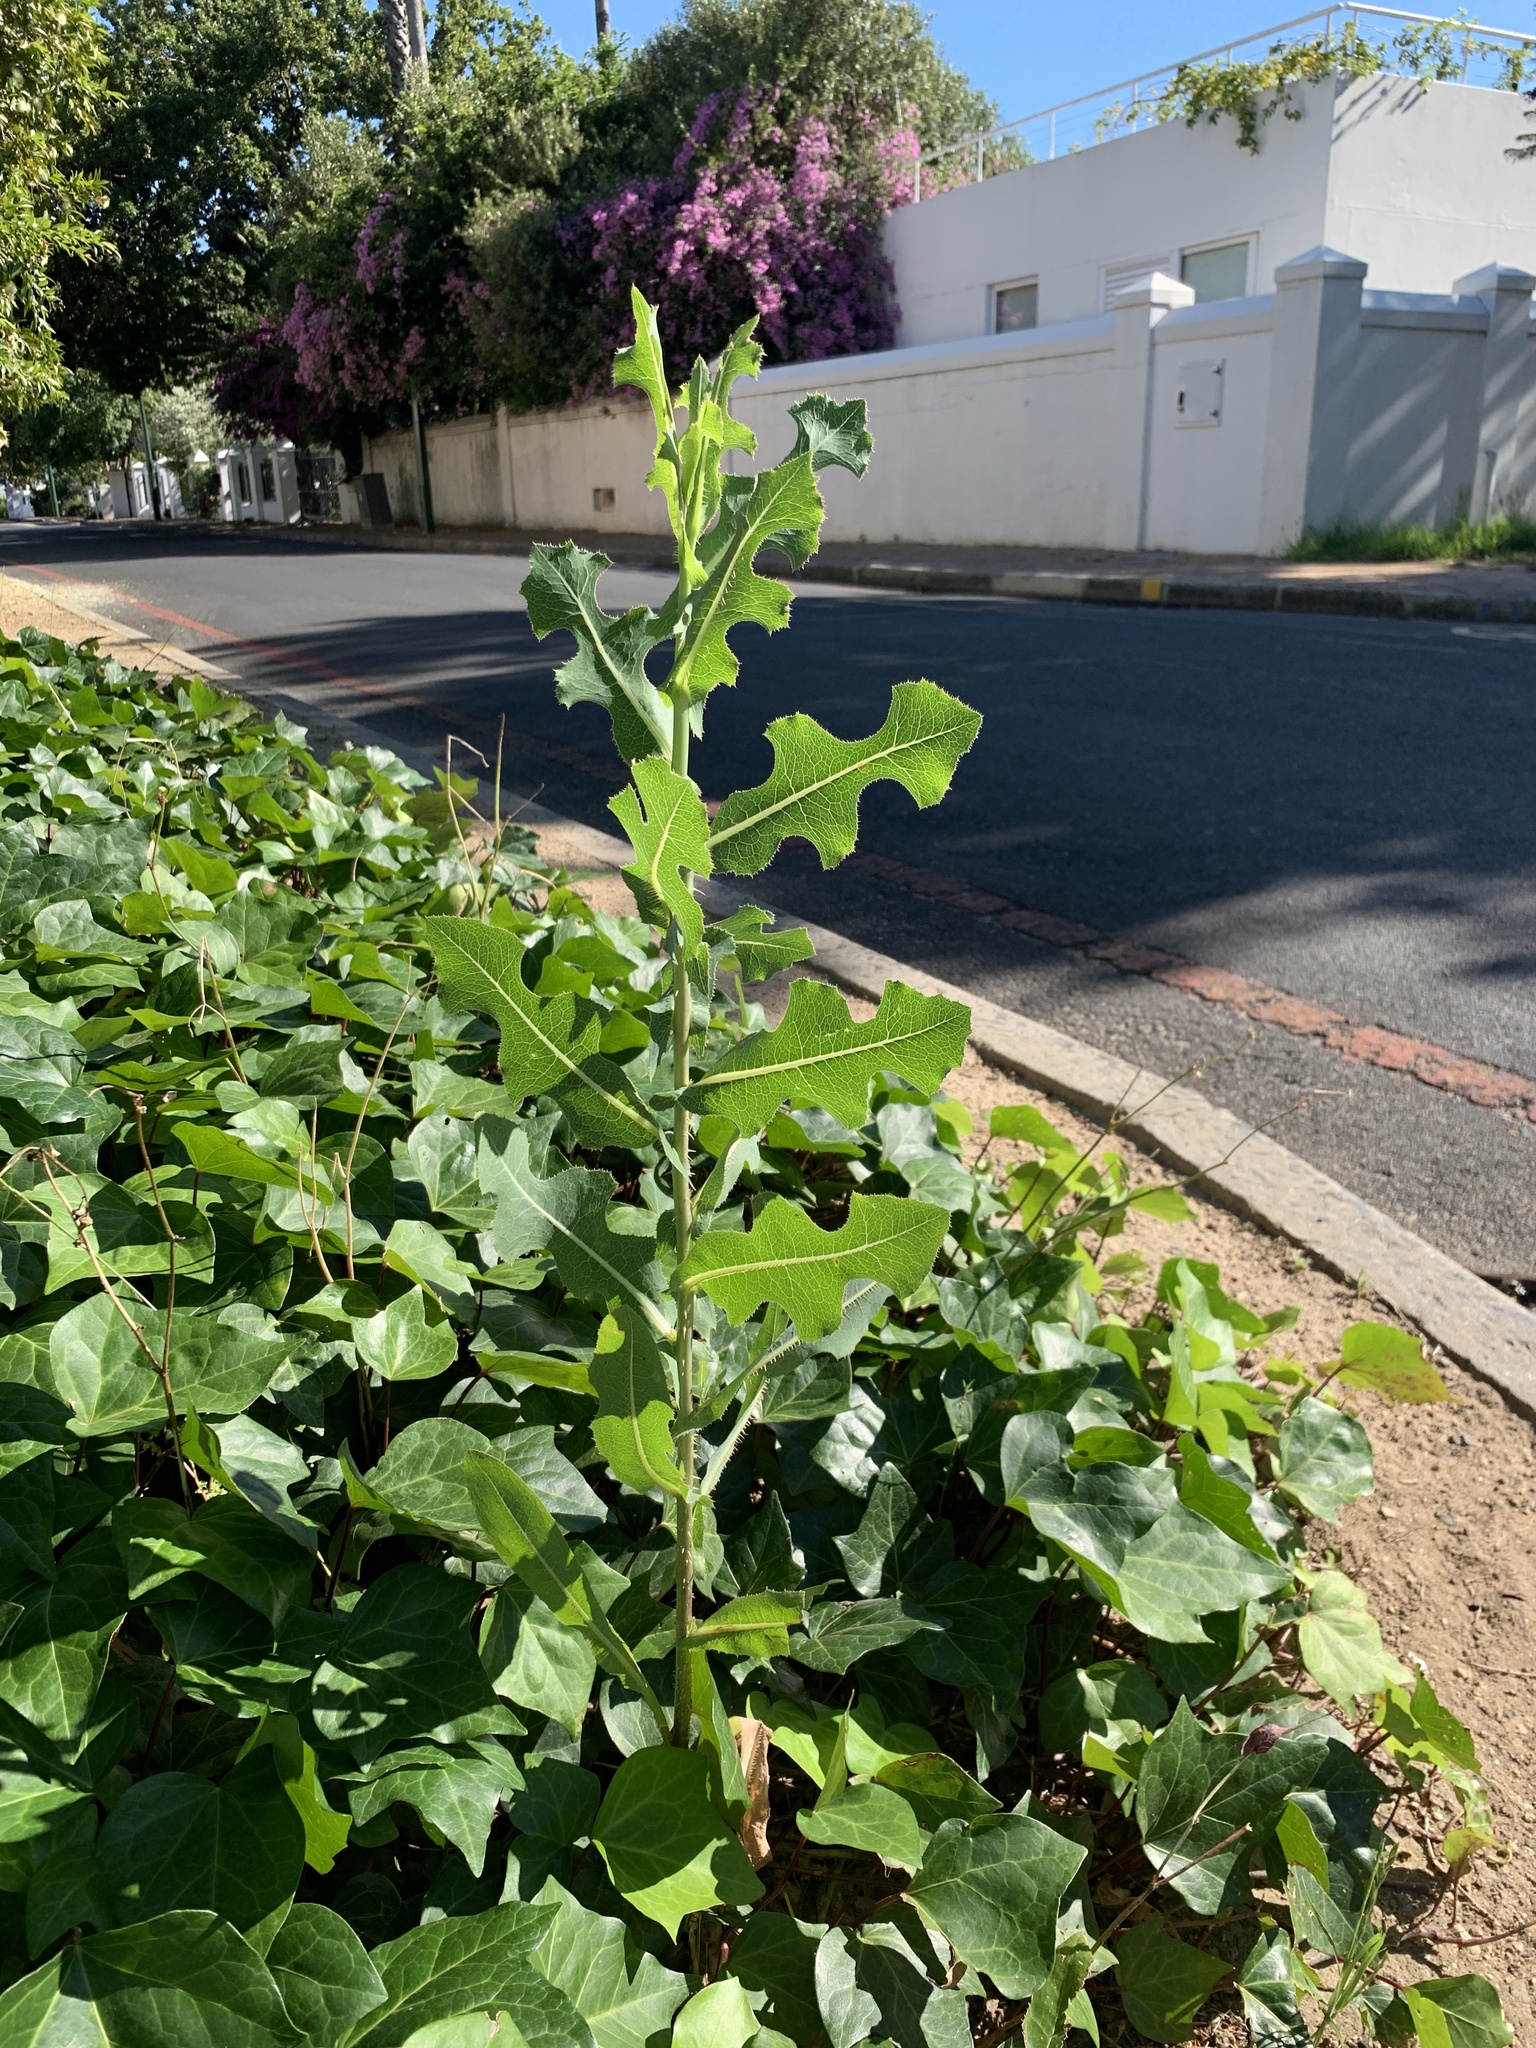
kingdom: Plantae
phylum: Tracheophyta
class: Magnoliopsida
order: Asterales
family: Asteraceae
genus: Lactuca
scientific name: Lactuca serriola
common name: Prickly lettuce
